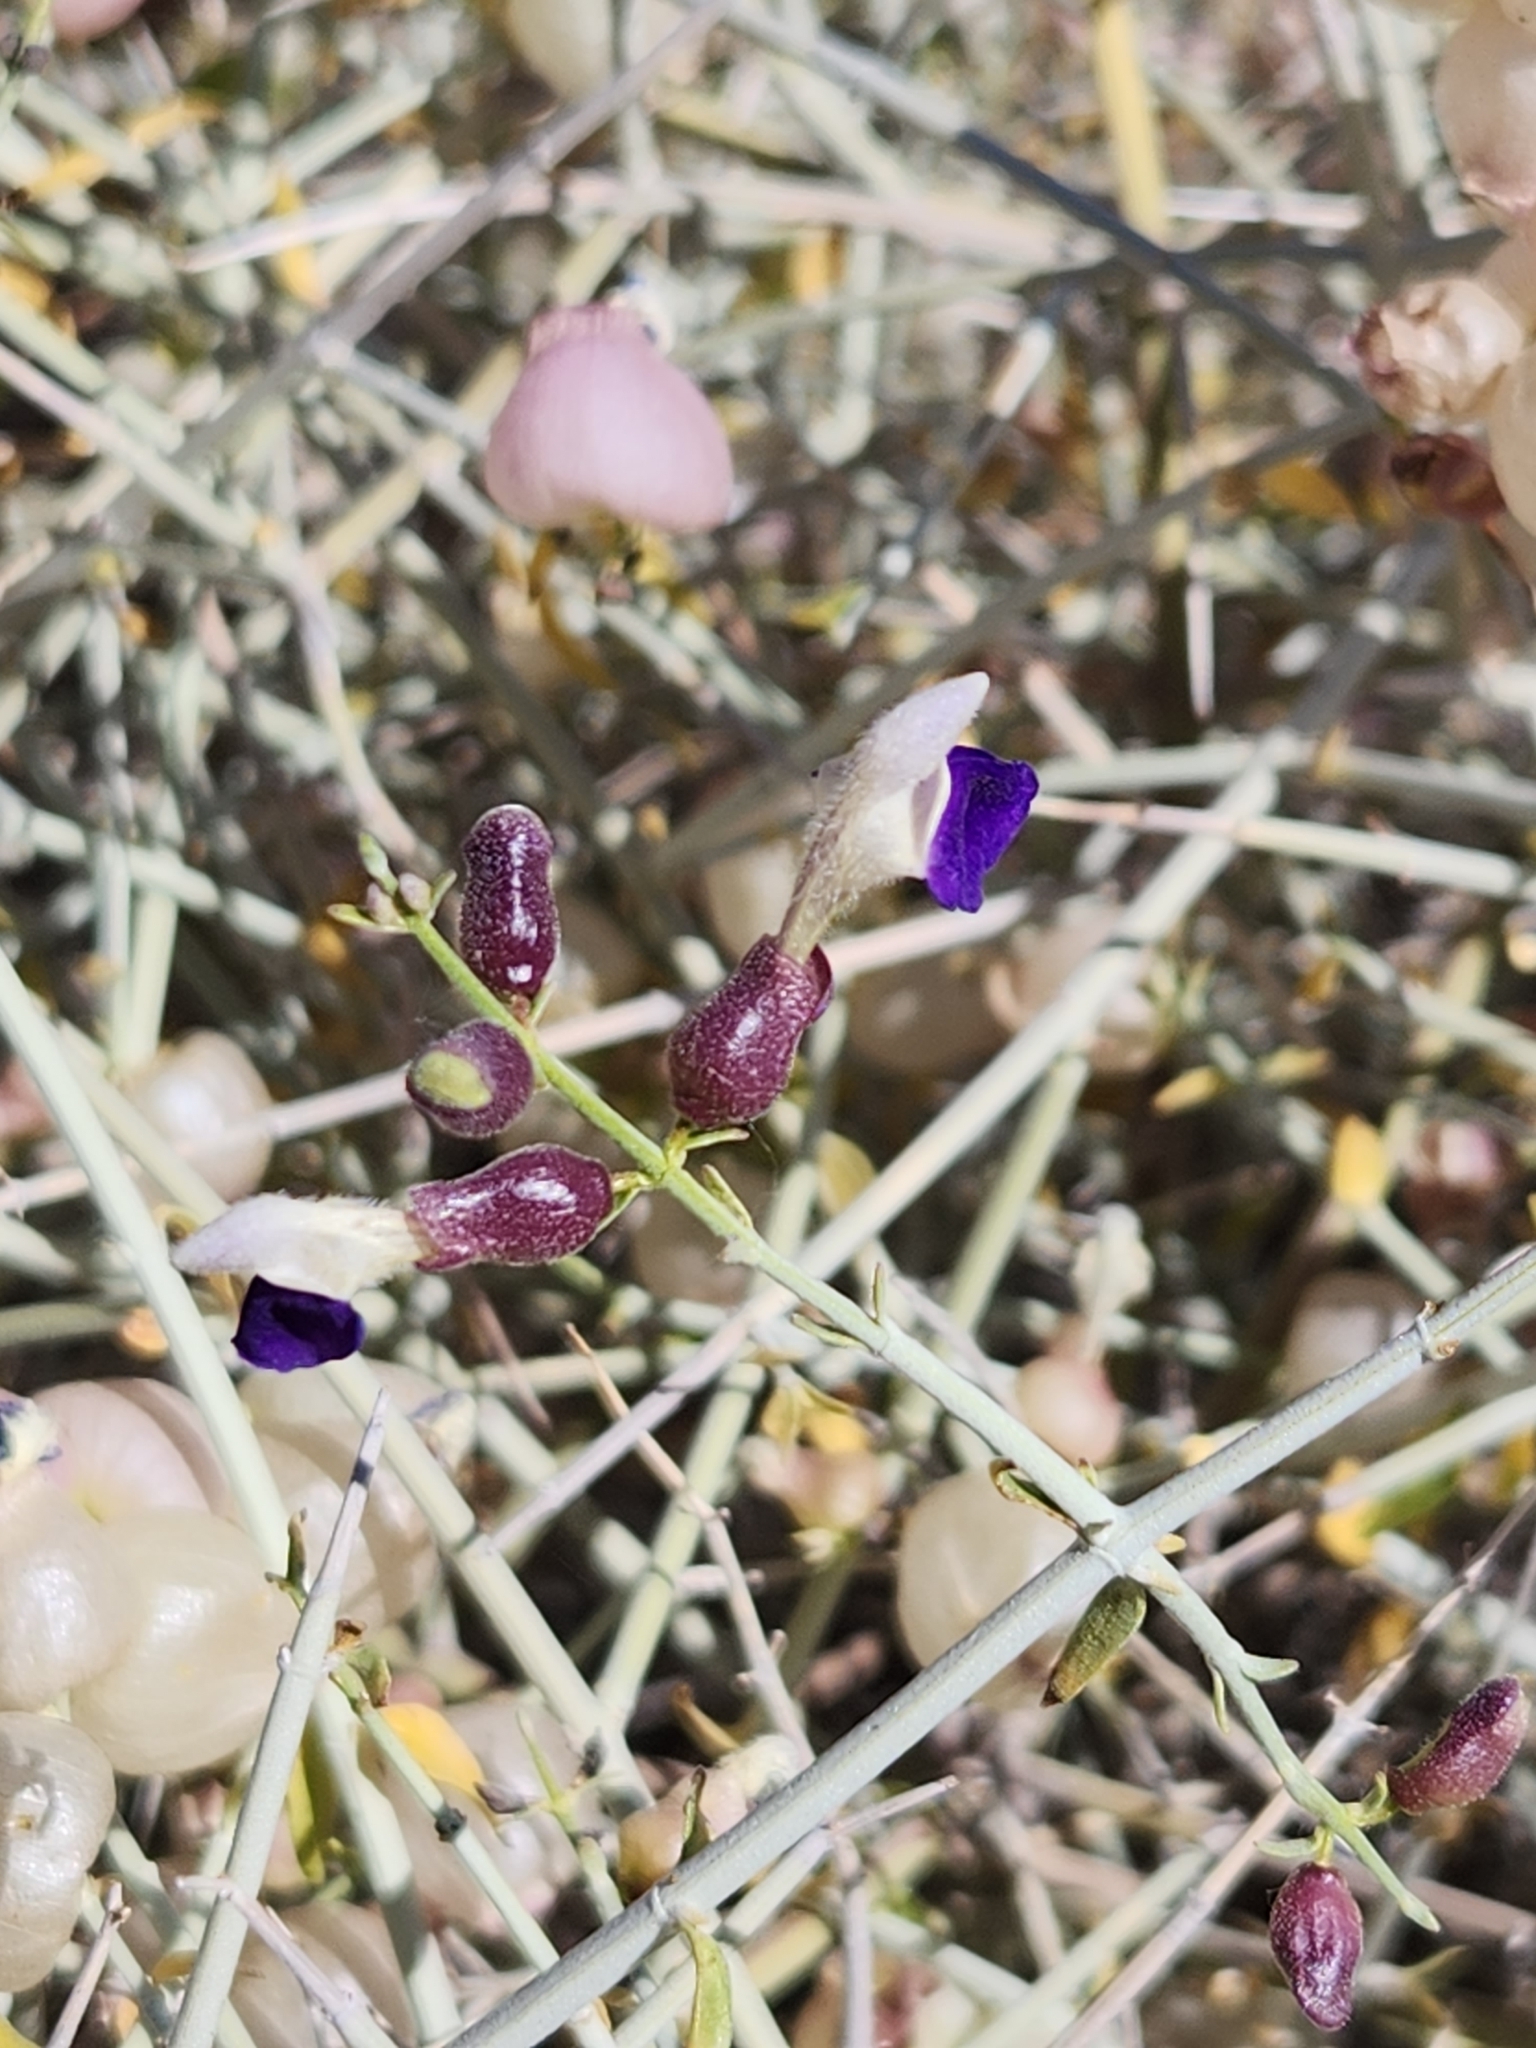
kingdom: Plantae
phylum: Tracheophyta
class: Magnoliopsida
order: Lamiales
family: Lamiaceae
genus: Scutellaria
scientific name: Scutellaria mexicana
